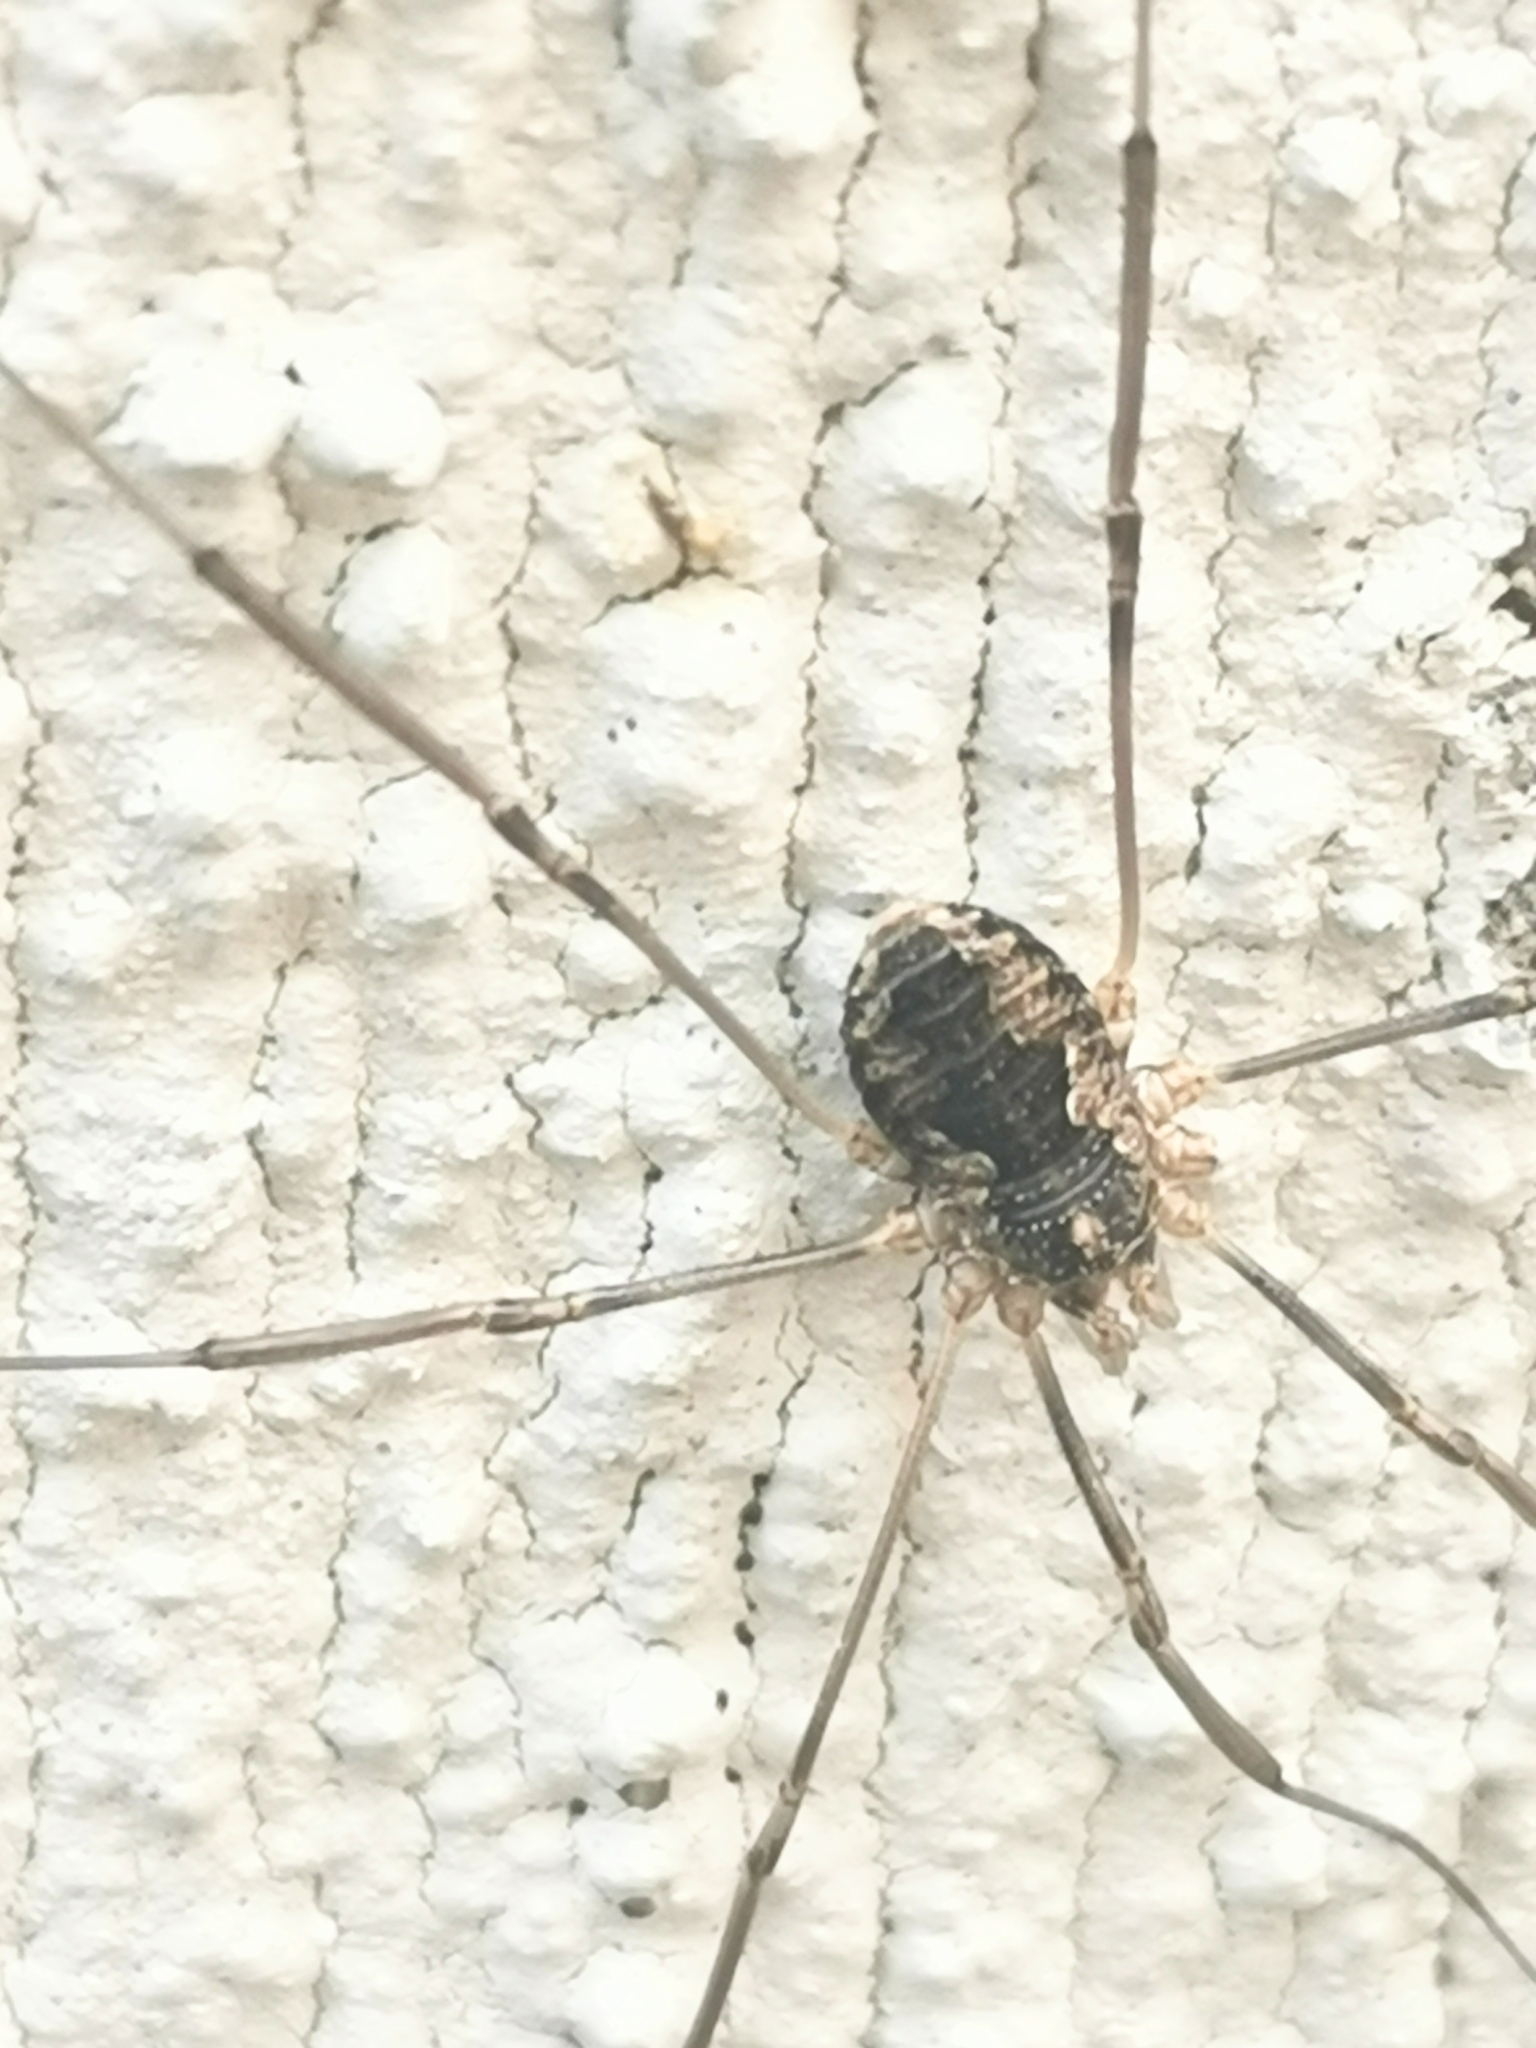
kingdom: Animalia
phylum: Arthropoda
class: Arachnida
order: Opiliones
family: Phalangiidae
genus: Phalangium
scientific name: Phalangium opilio
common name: Daddy longleg
